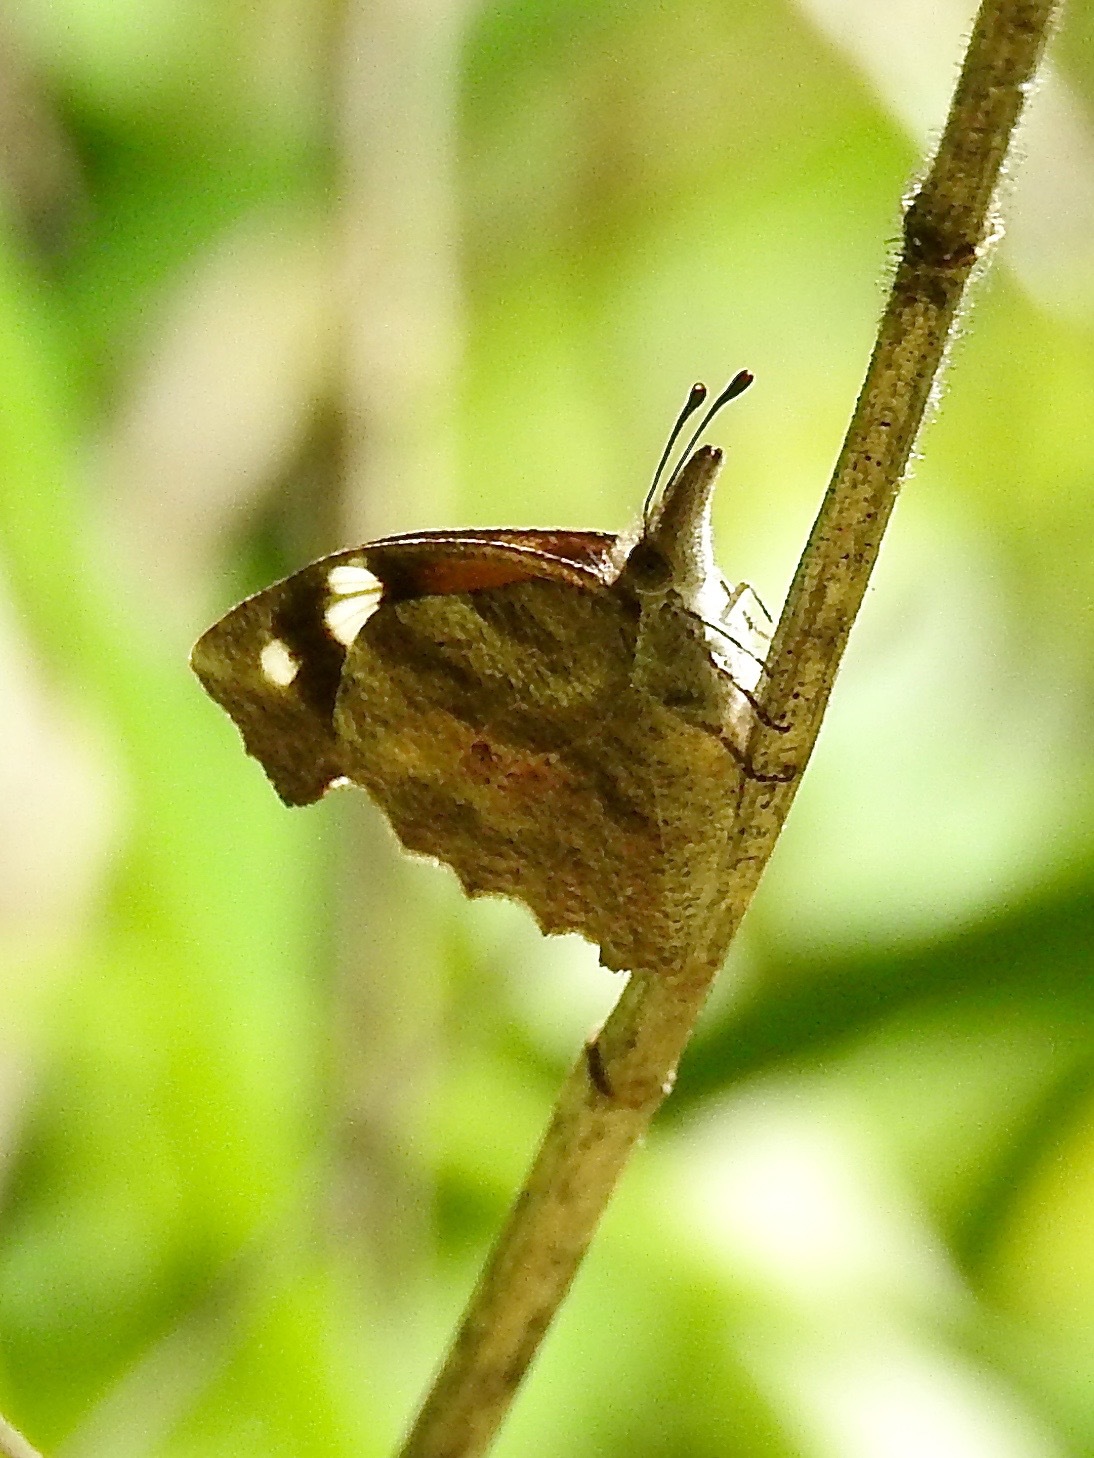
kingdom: Animalia
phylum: Arthropoda
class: Insecta
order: Lepidoptera
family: Nymphalidae
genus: Libytheana
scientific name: Libytheana carinenta
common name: American snout
